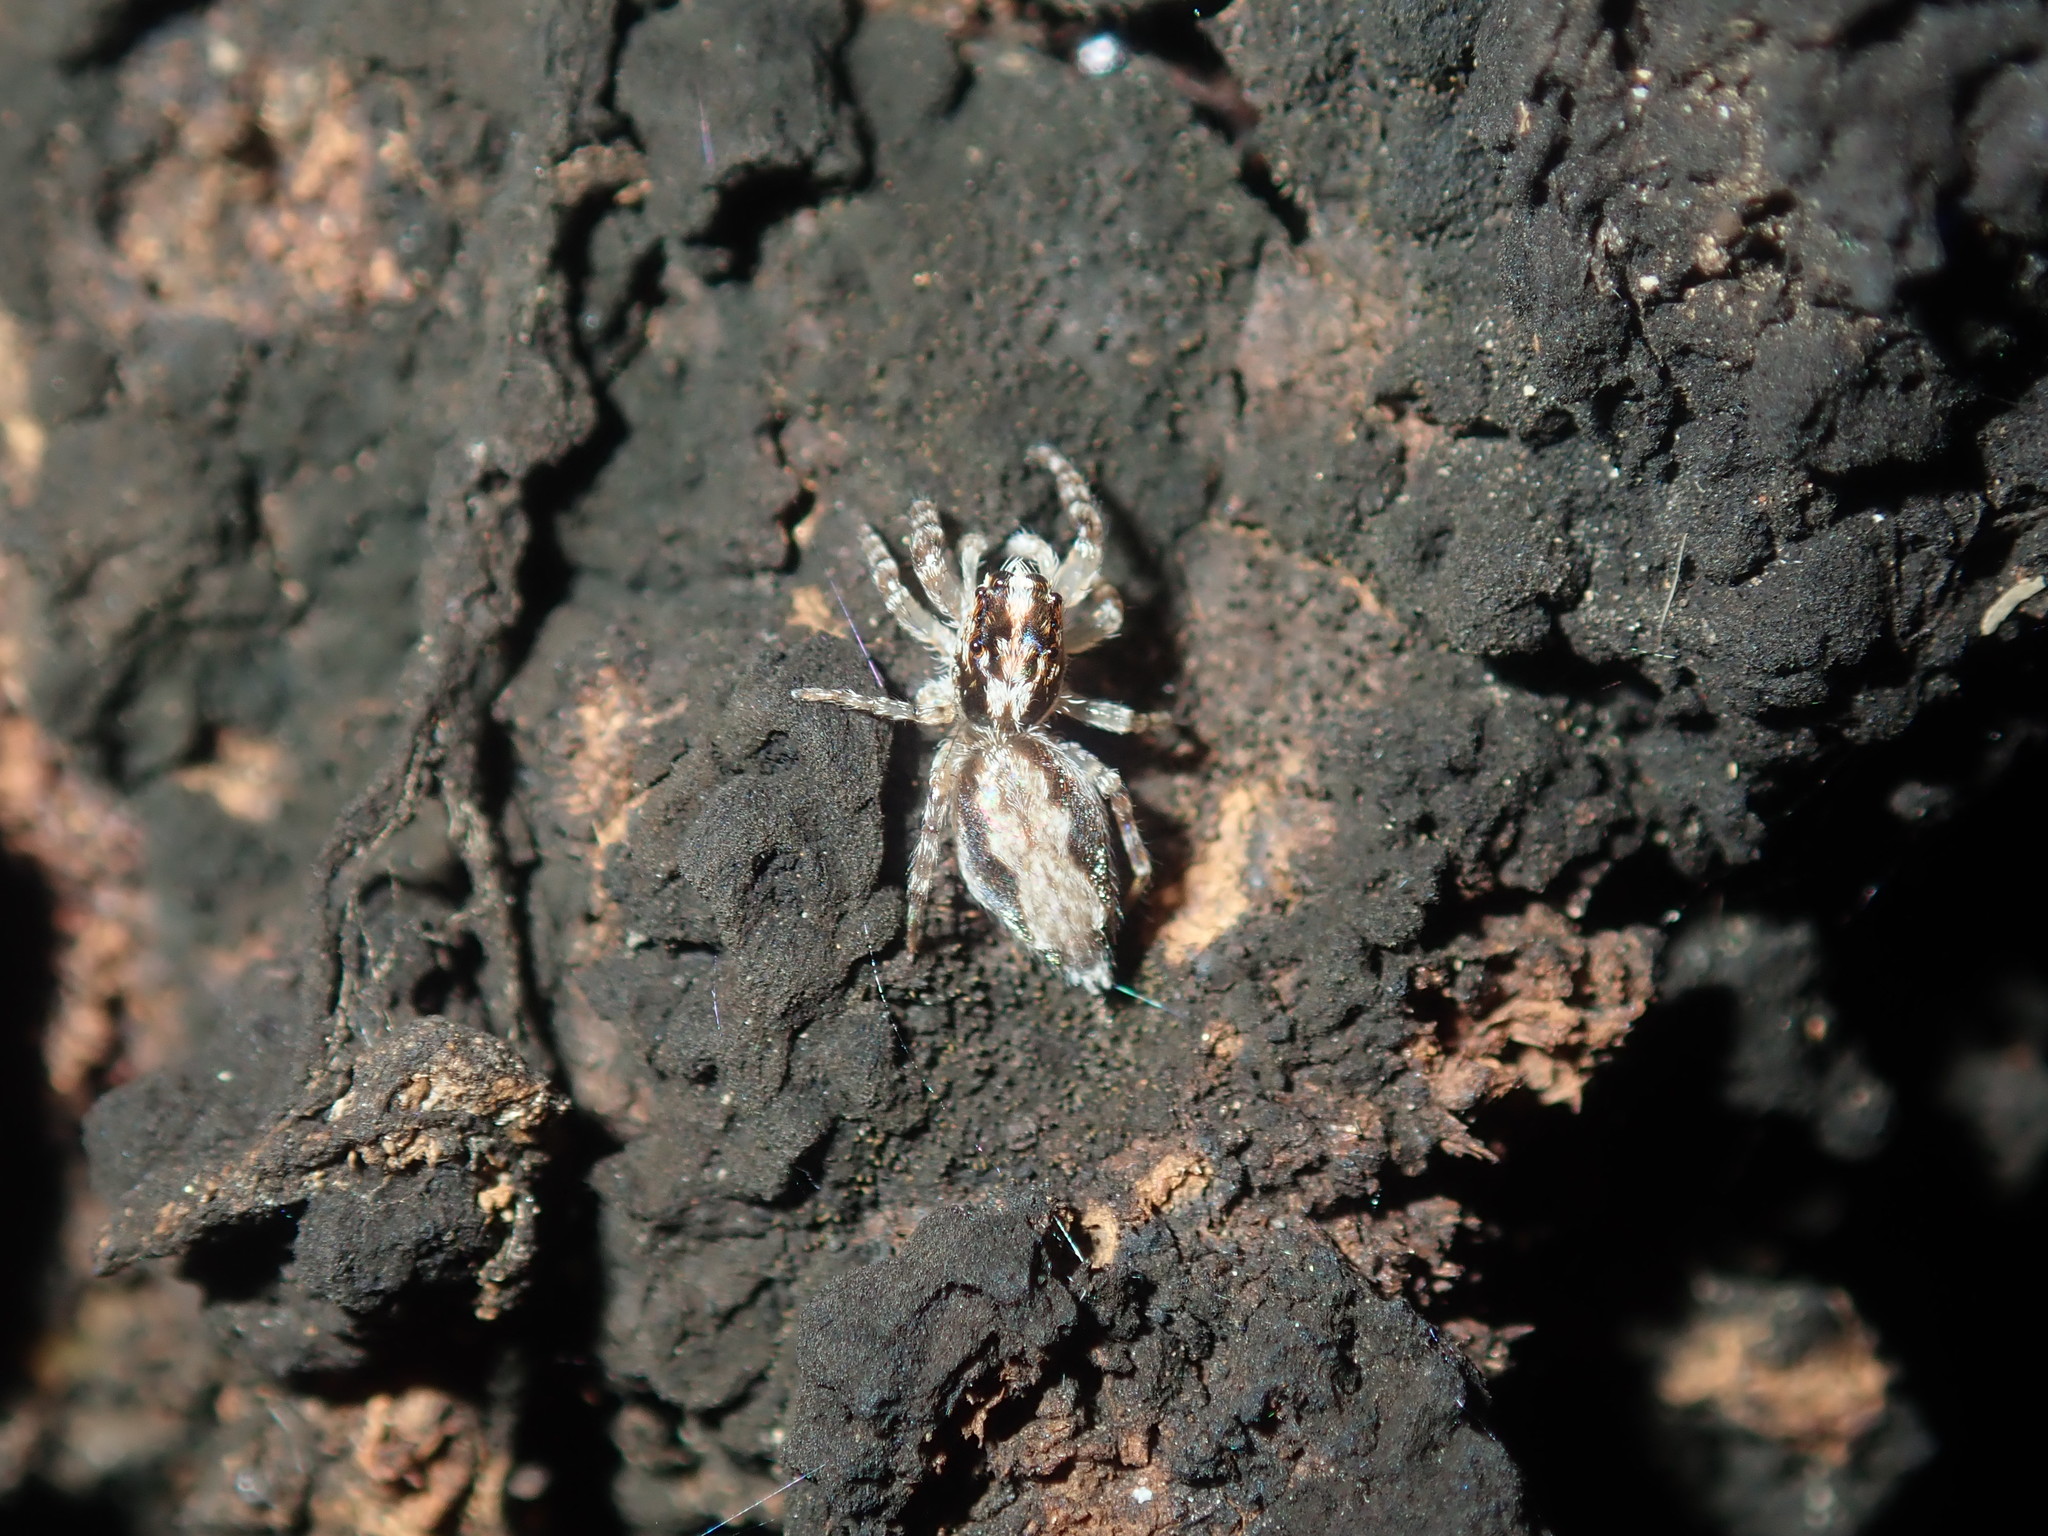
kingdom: Animalia
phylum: Arthropoda
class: Arachnida
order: Araneae
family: Salticidae
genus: Apricia
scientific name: Apricia bracteata
